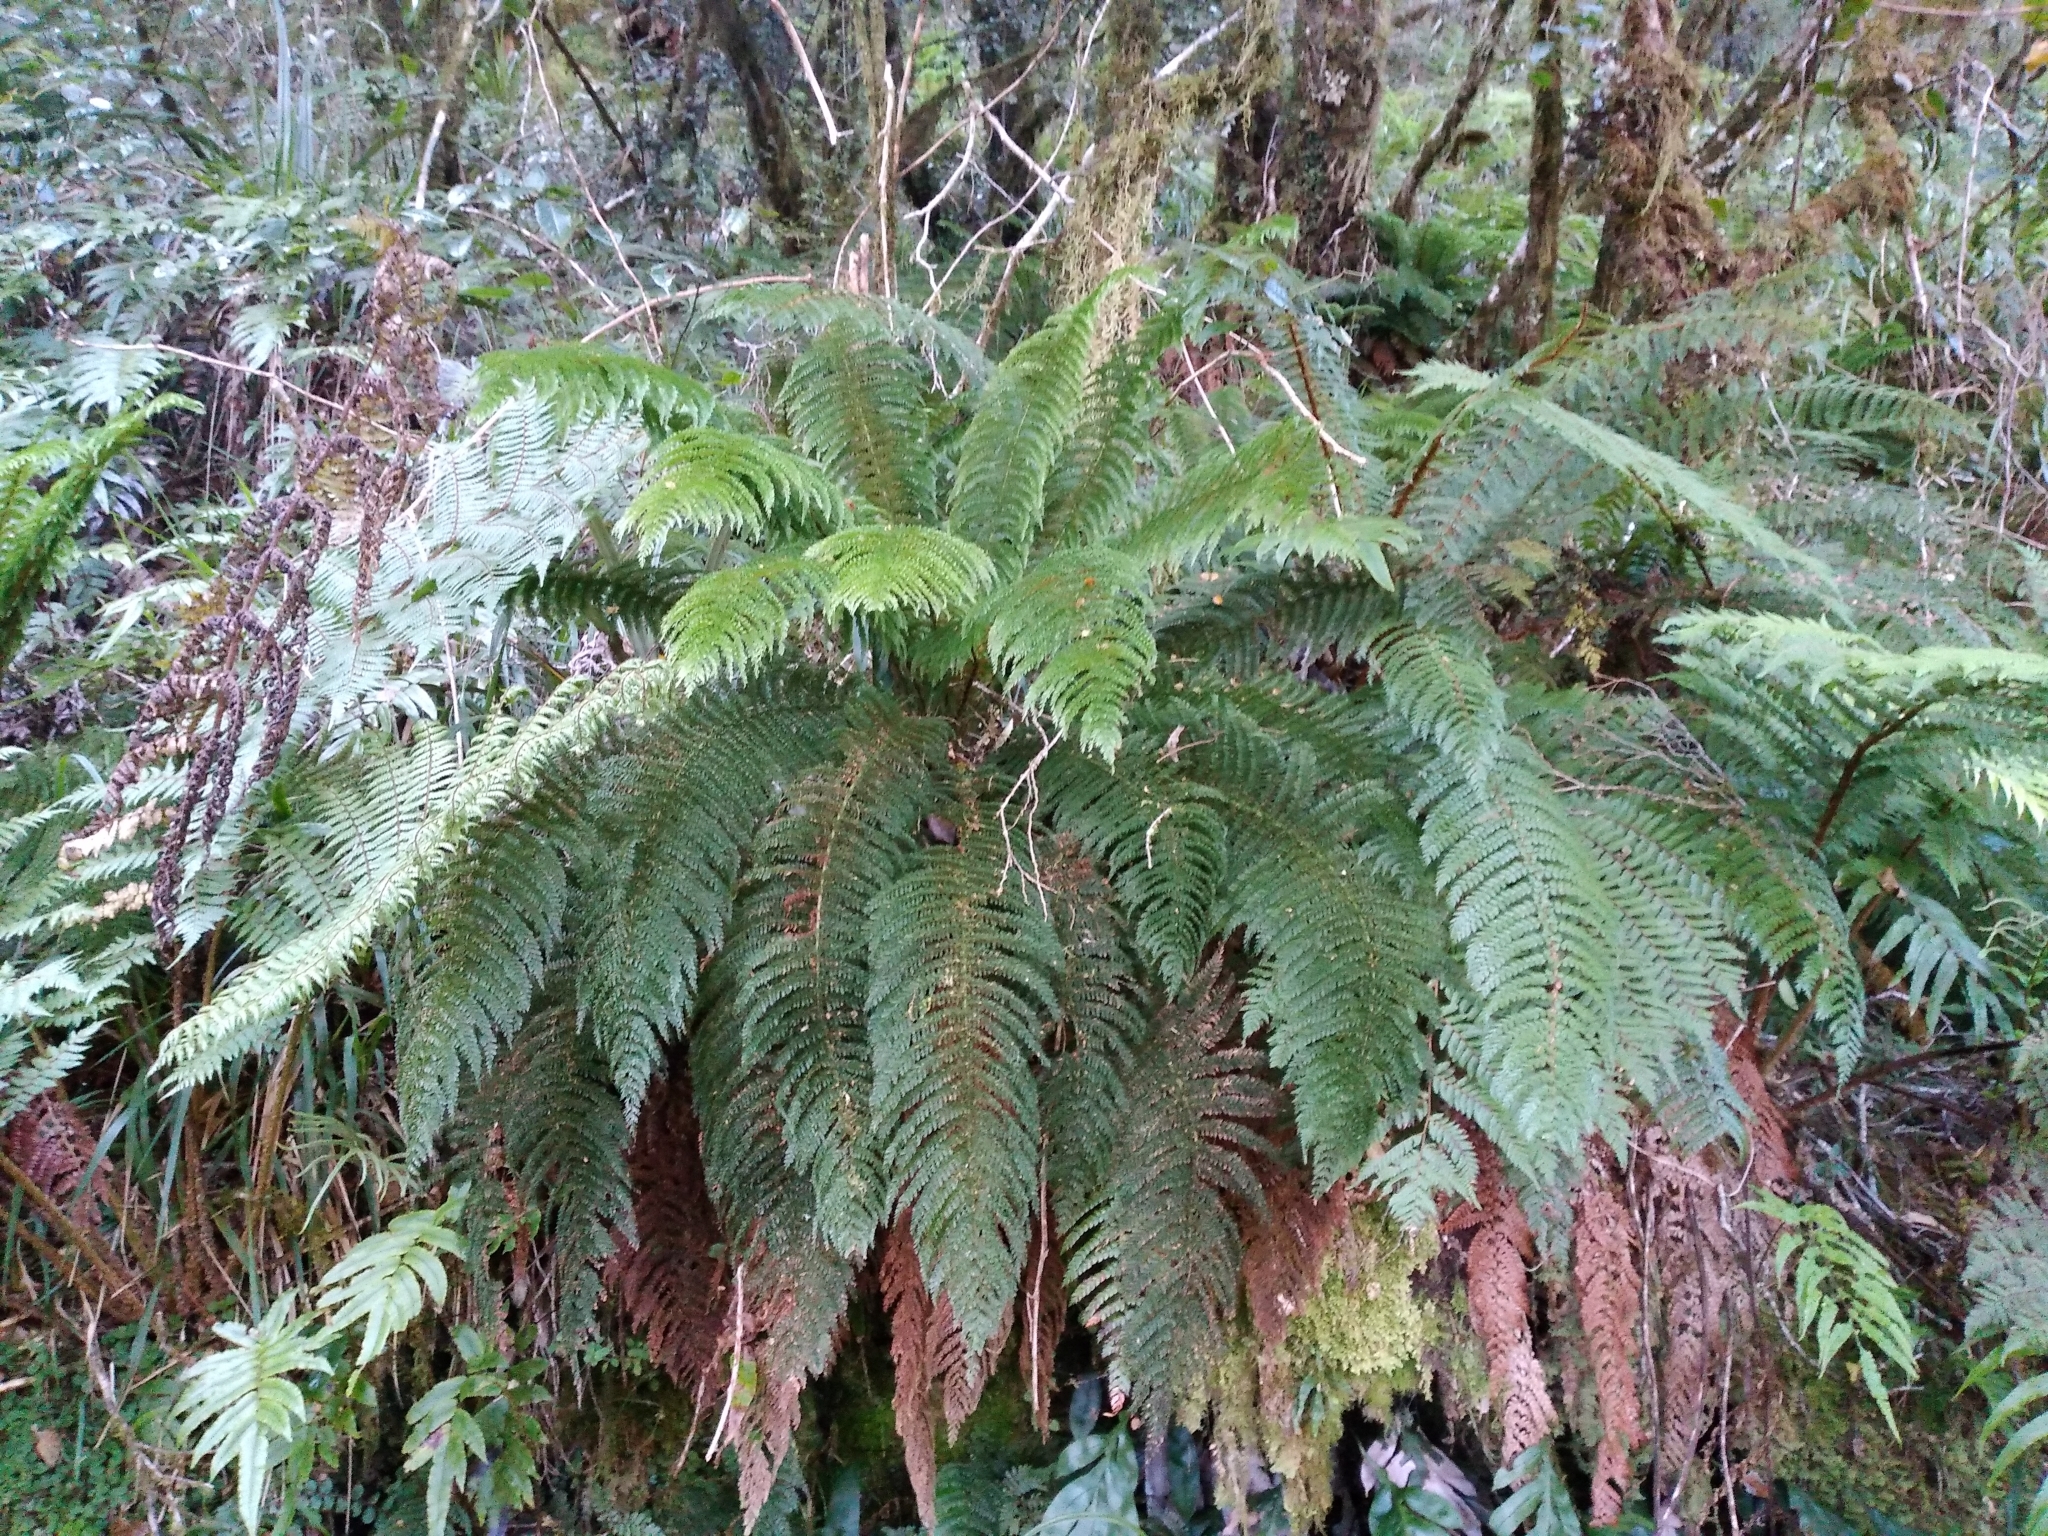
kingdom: Plantae
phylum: Tracheophyta
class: Polypodiopsida
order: Osmundales
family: Osmundaceae
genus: Leptopteris
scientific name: Leptopteris superba
